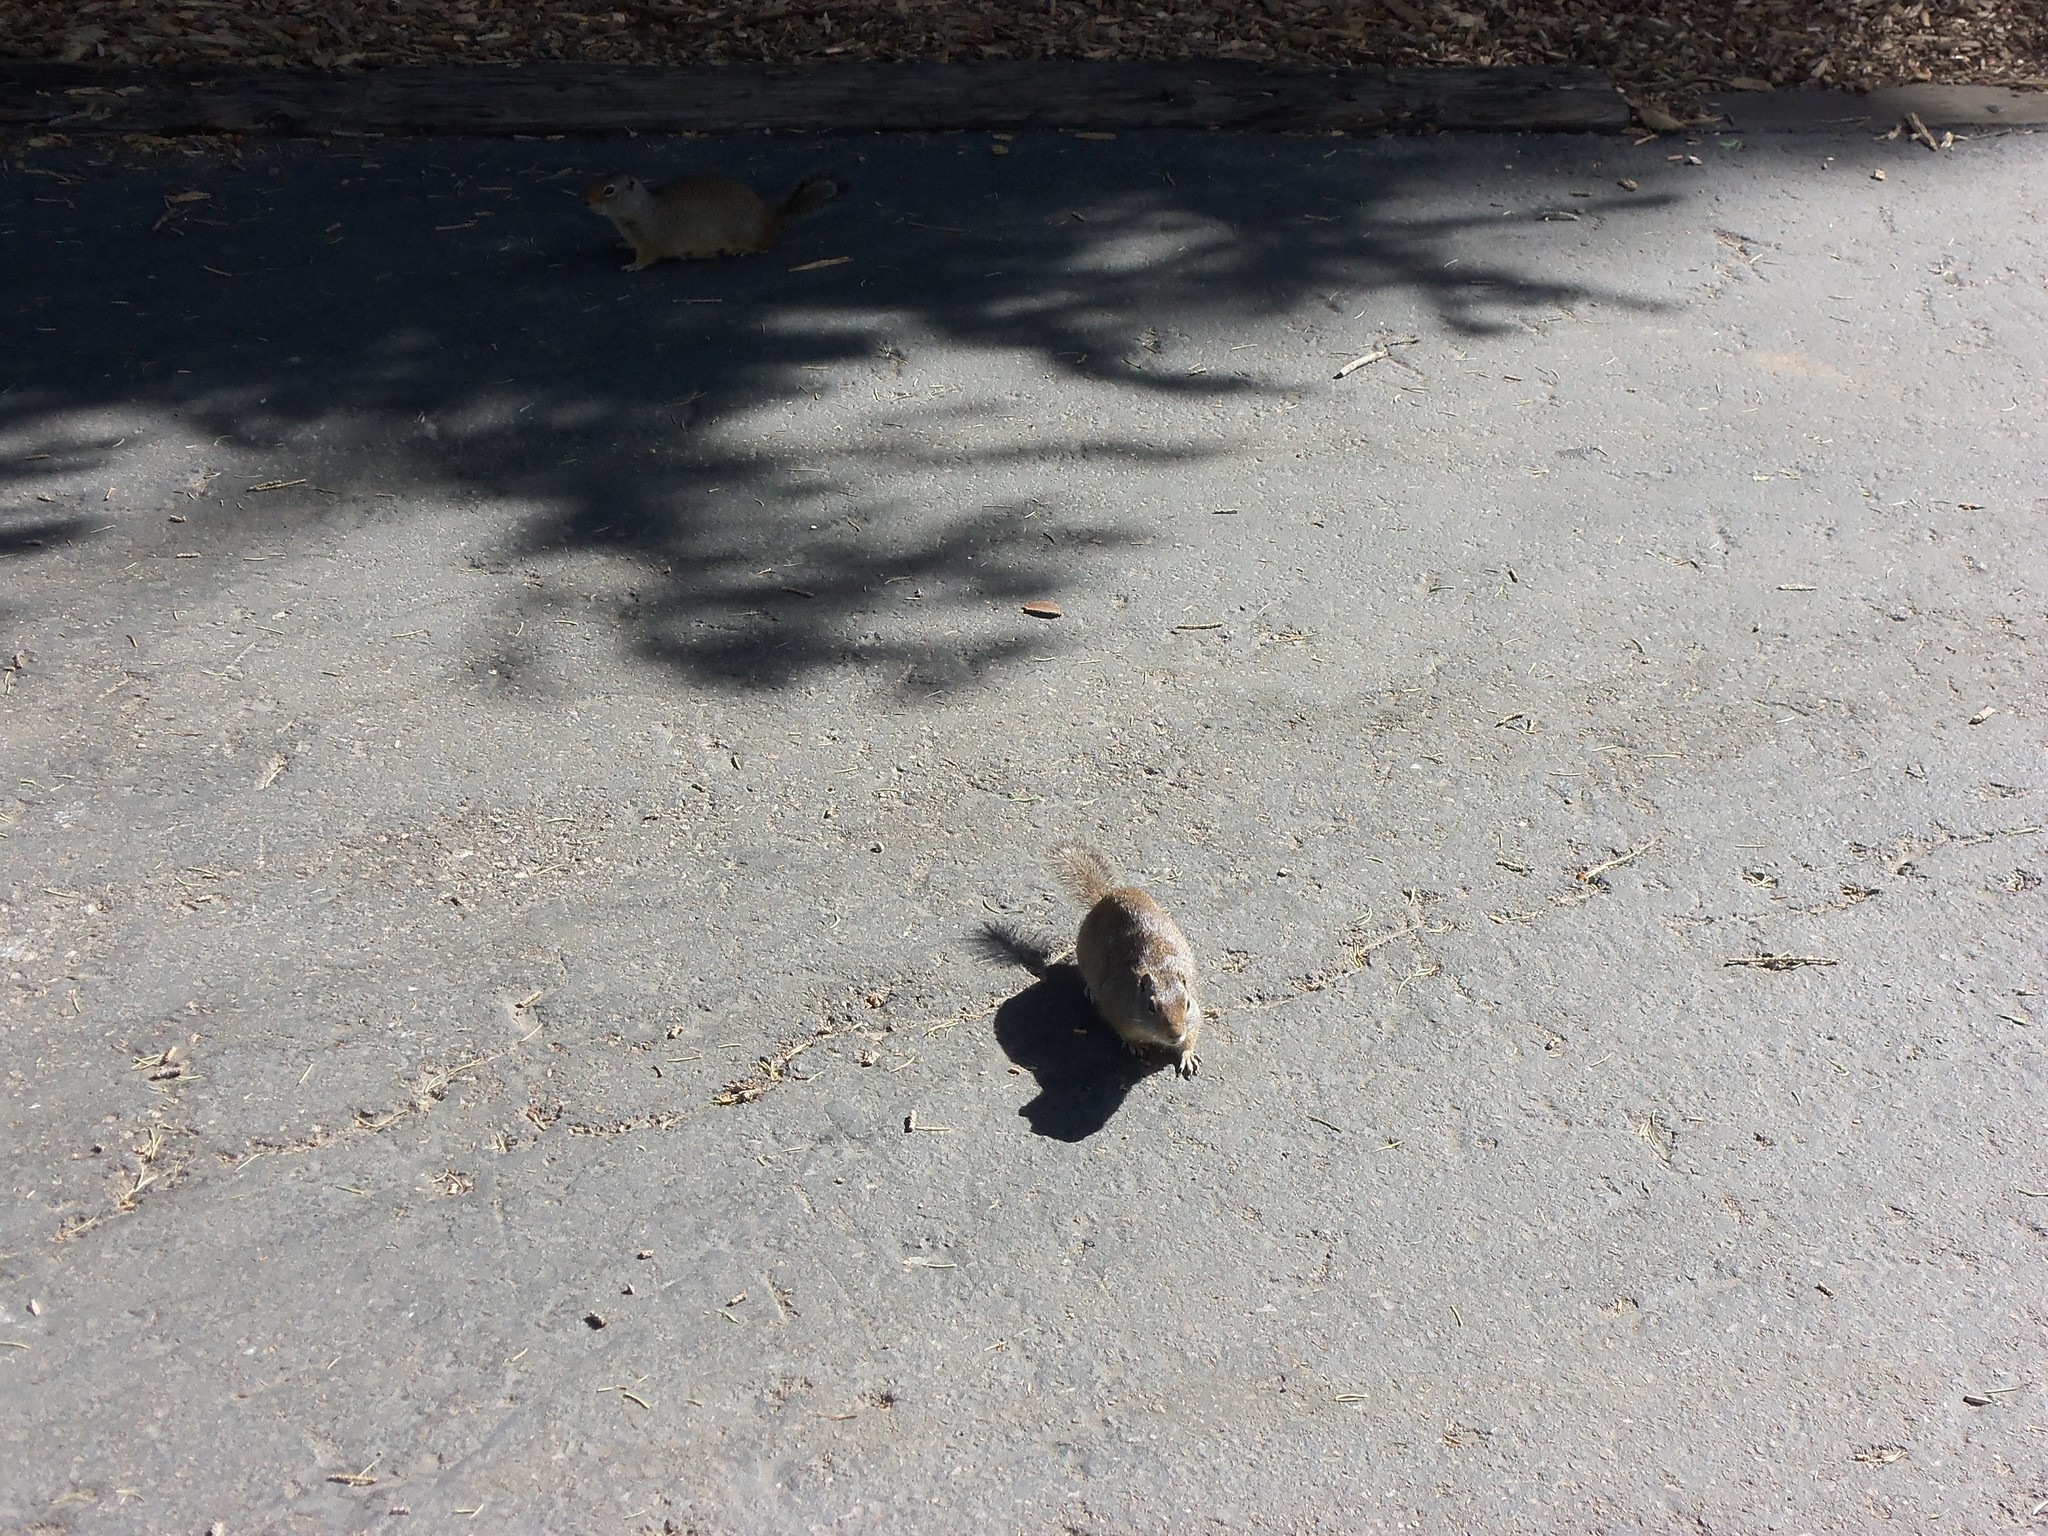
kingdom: Animalia
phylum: Chordata
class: Mammalia
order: Rodentia
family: Sciuridae
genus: Urocitellus
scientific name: Urocitellus armatus
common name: Uinta ground squirrel
